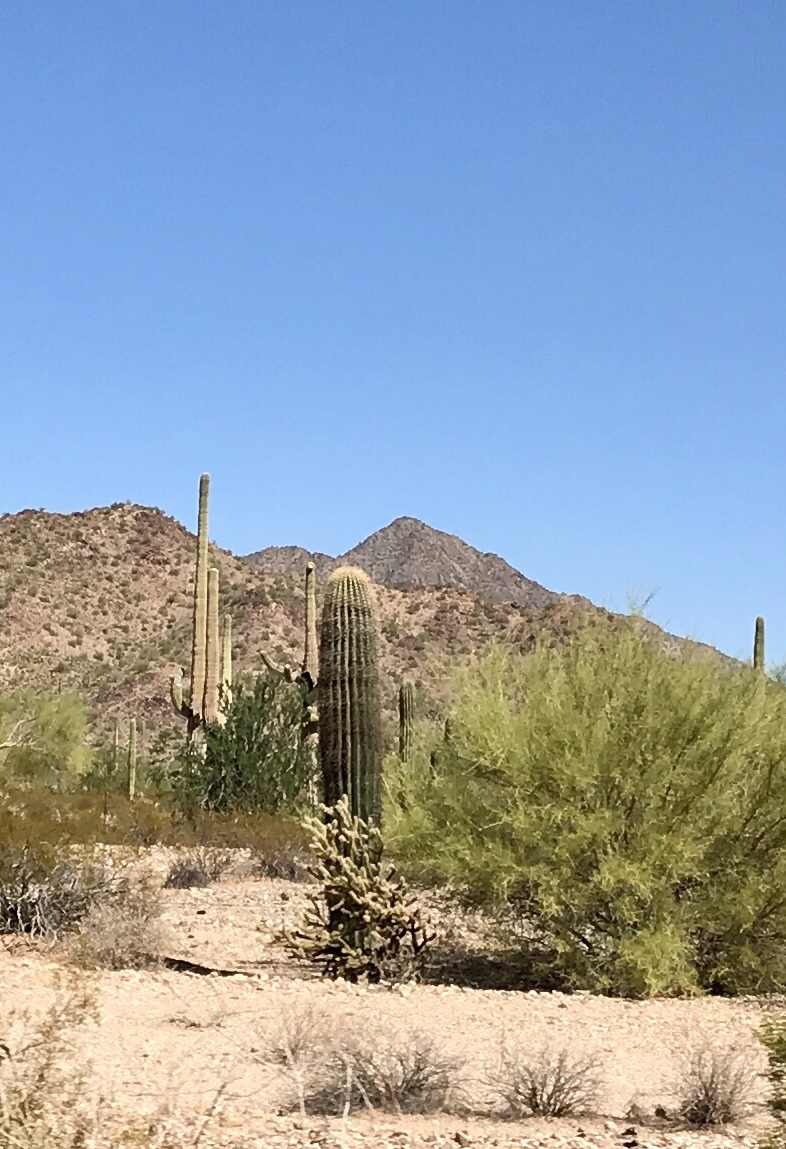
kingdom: Plantae
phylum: Tracheophyta
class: Magnoliopsida
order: Caryophyllales
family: Cactaceae
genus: Carnegiea
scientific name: Carnegiea gigantea
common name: Saguaro
